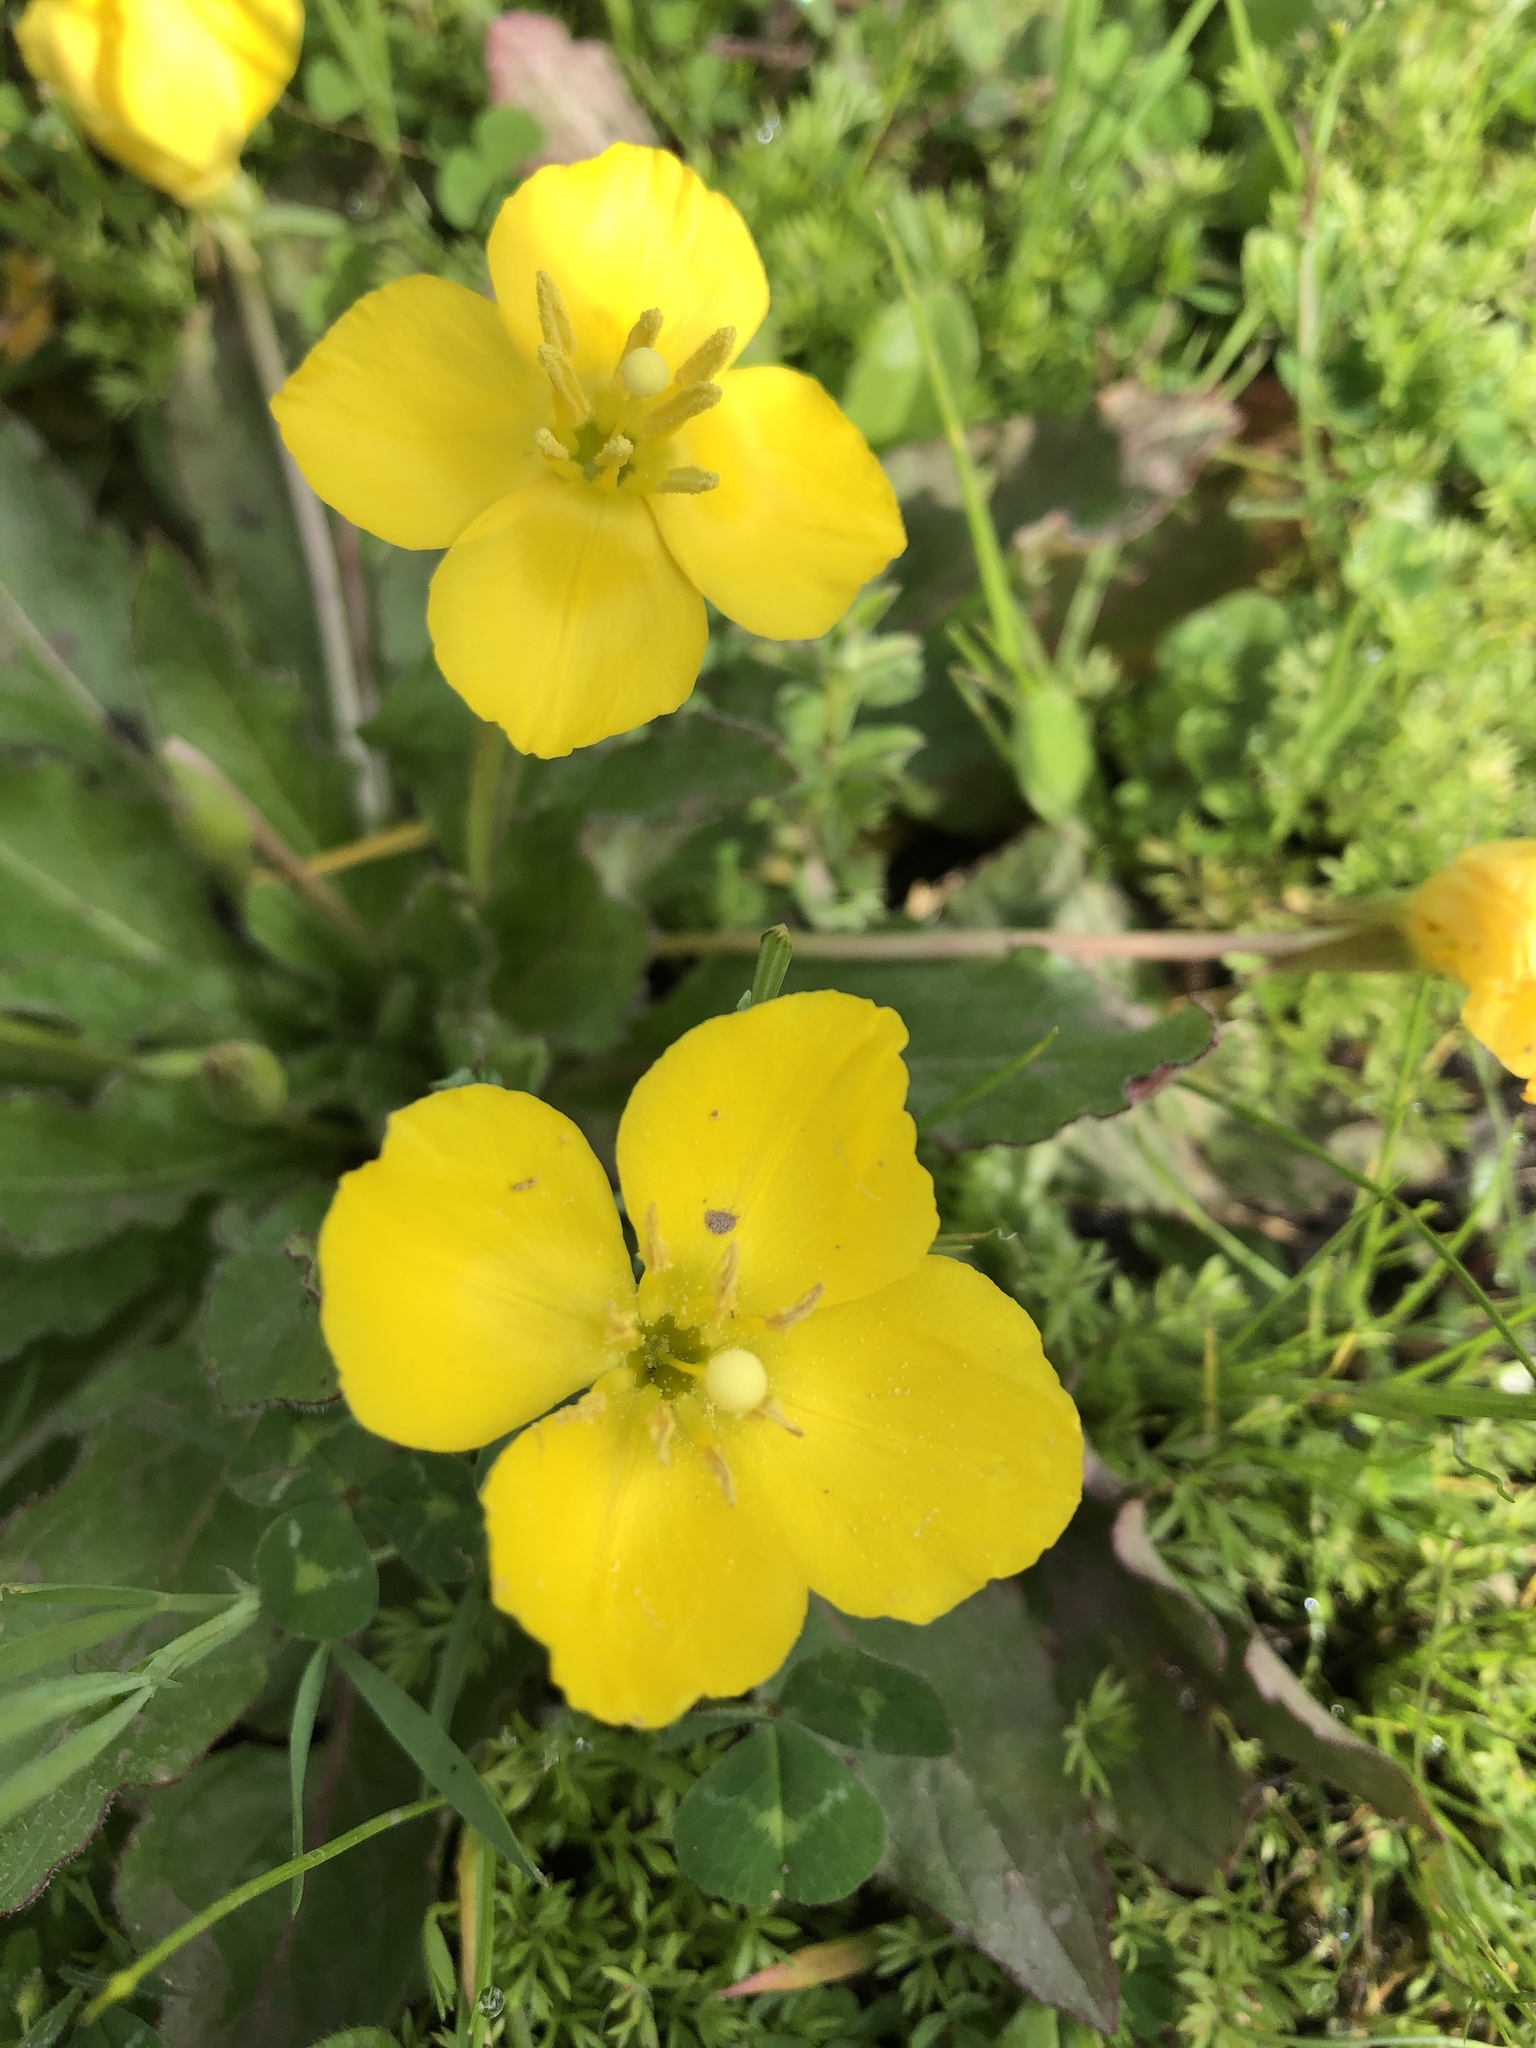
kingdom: Plantae
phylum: Tracheophyta
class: Magnoliopsida
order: Myrtales
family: Onagraceae
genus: Taraxia
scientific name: Taraxia ovata
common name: Goldeneggs
